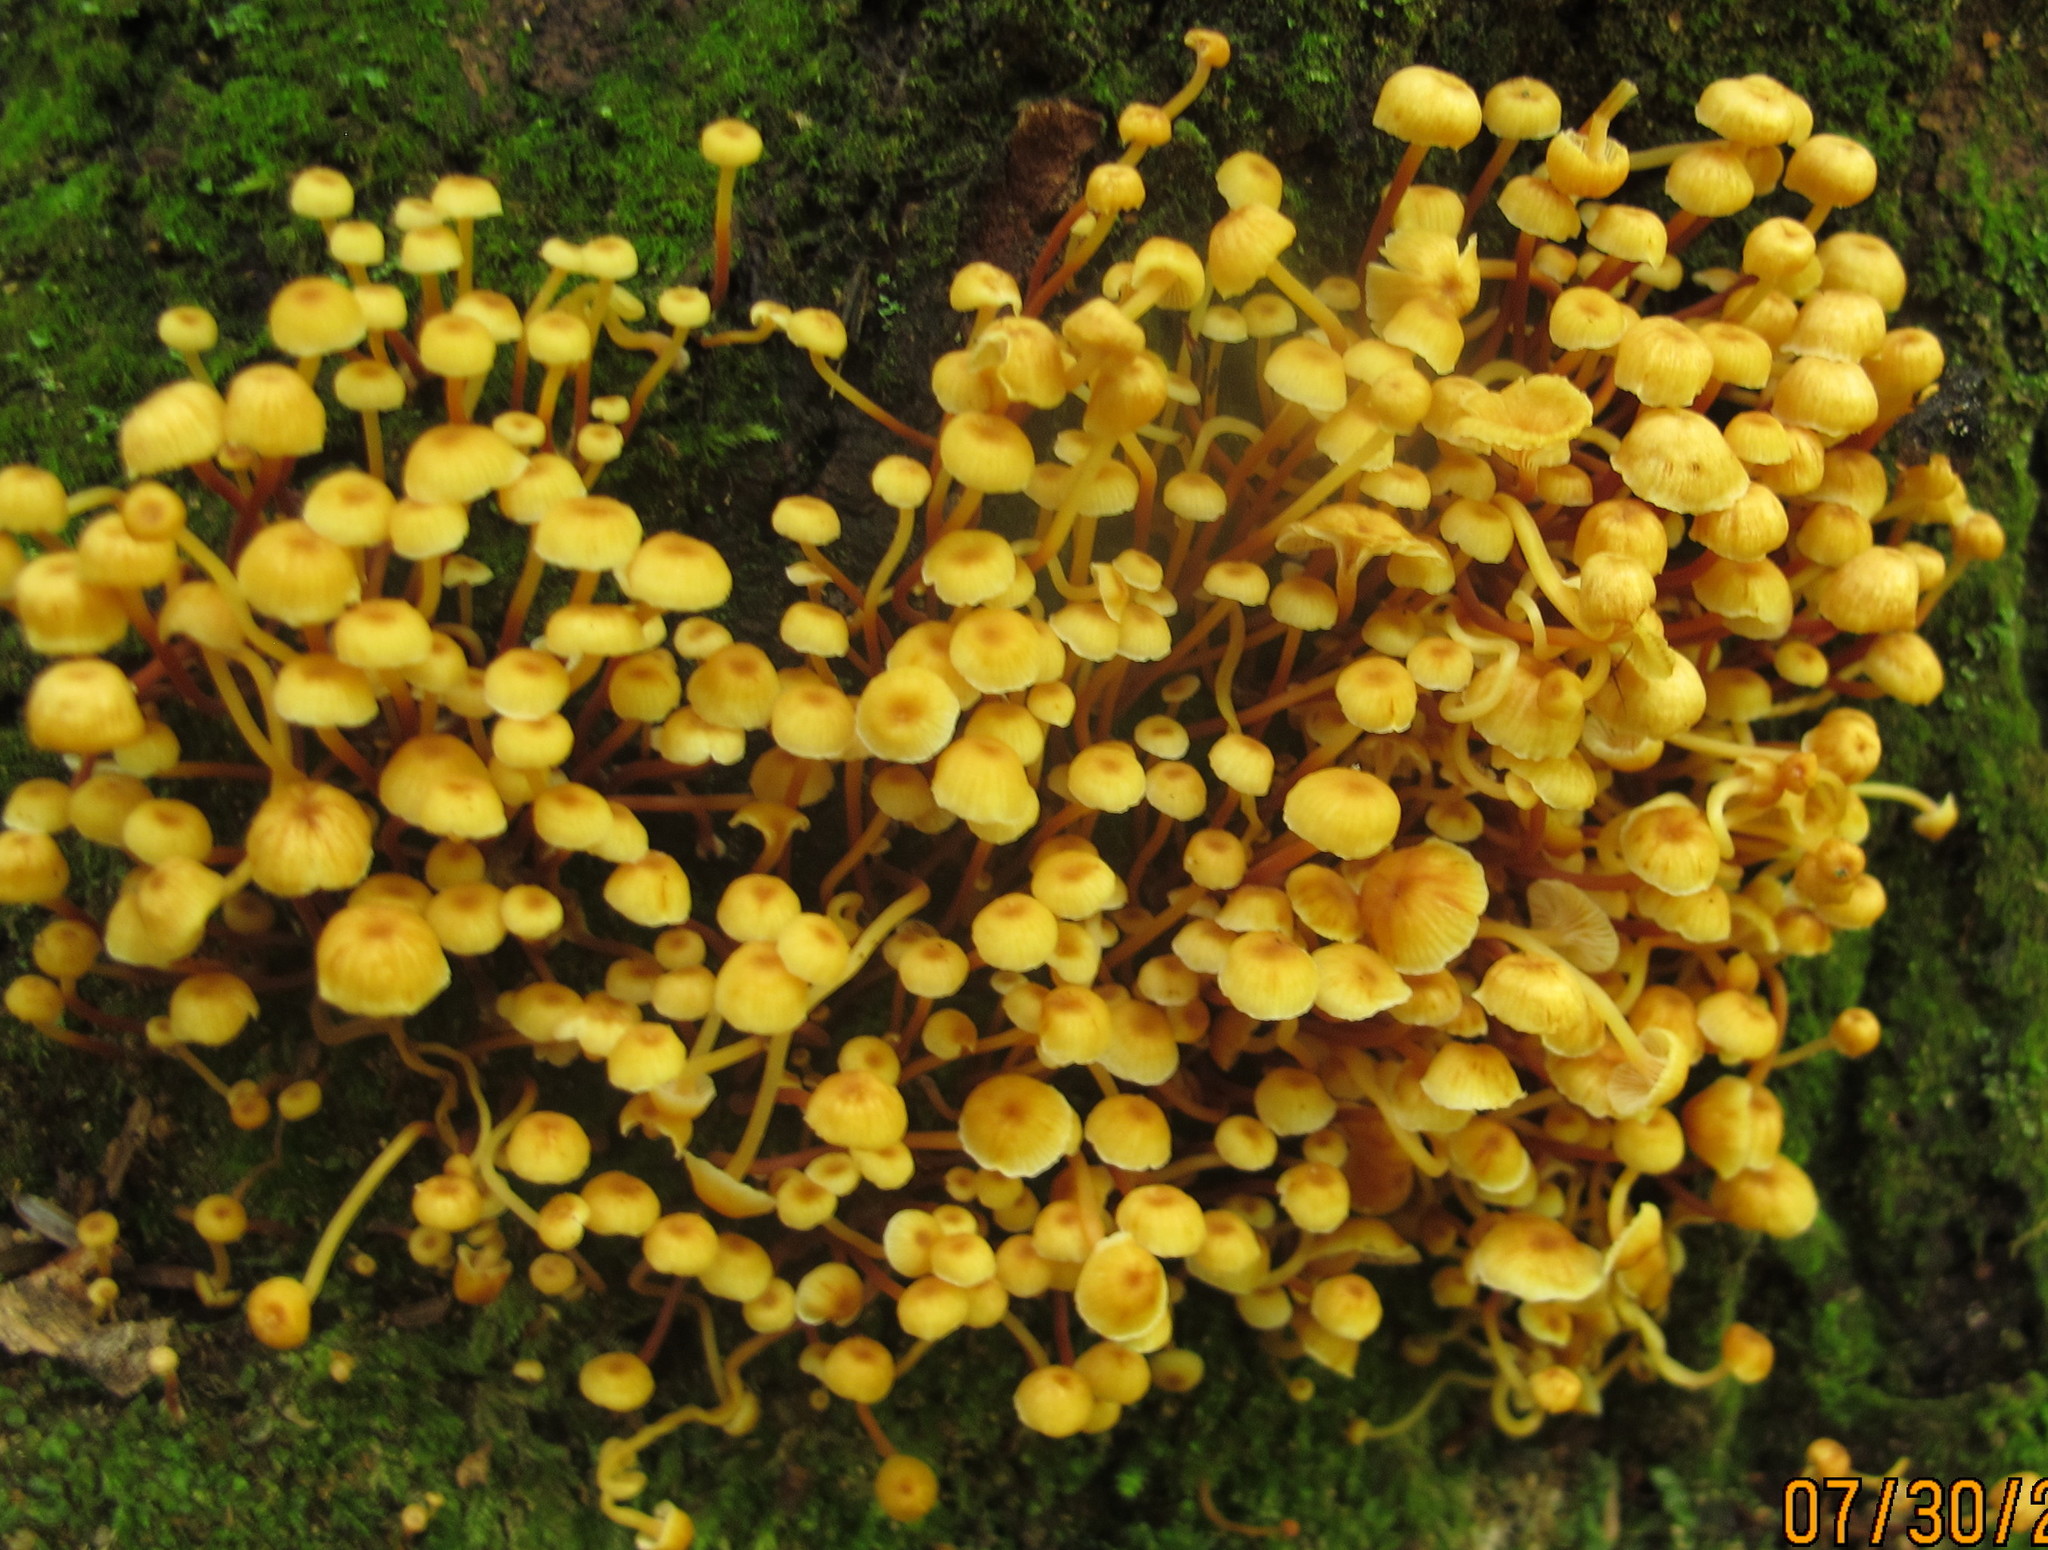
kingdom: Fungi
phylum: Basidiomycota
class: Agaricomycetes
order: Agaricales
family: Mycenaceae
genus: Xeromphalina
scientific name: Xeromphalina kauffmanii
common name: Cross-veined troop mushroom
